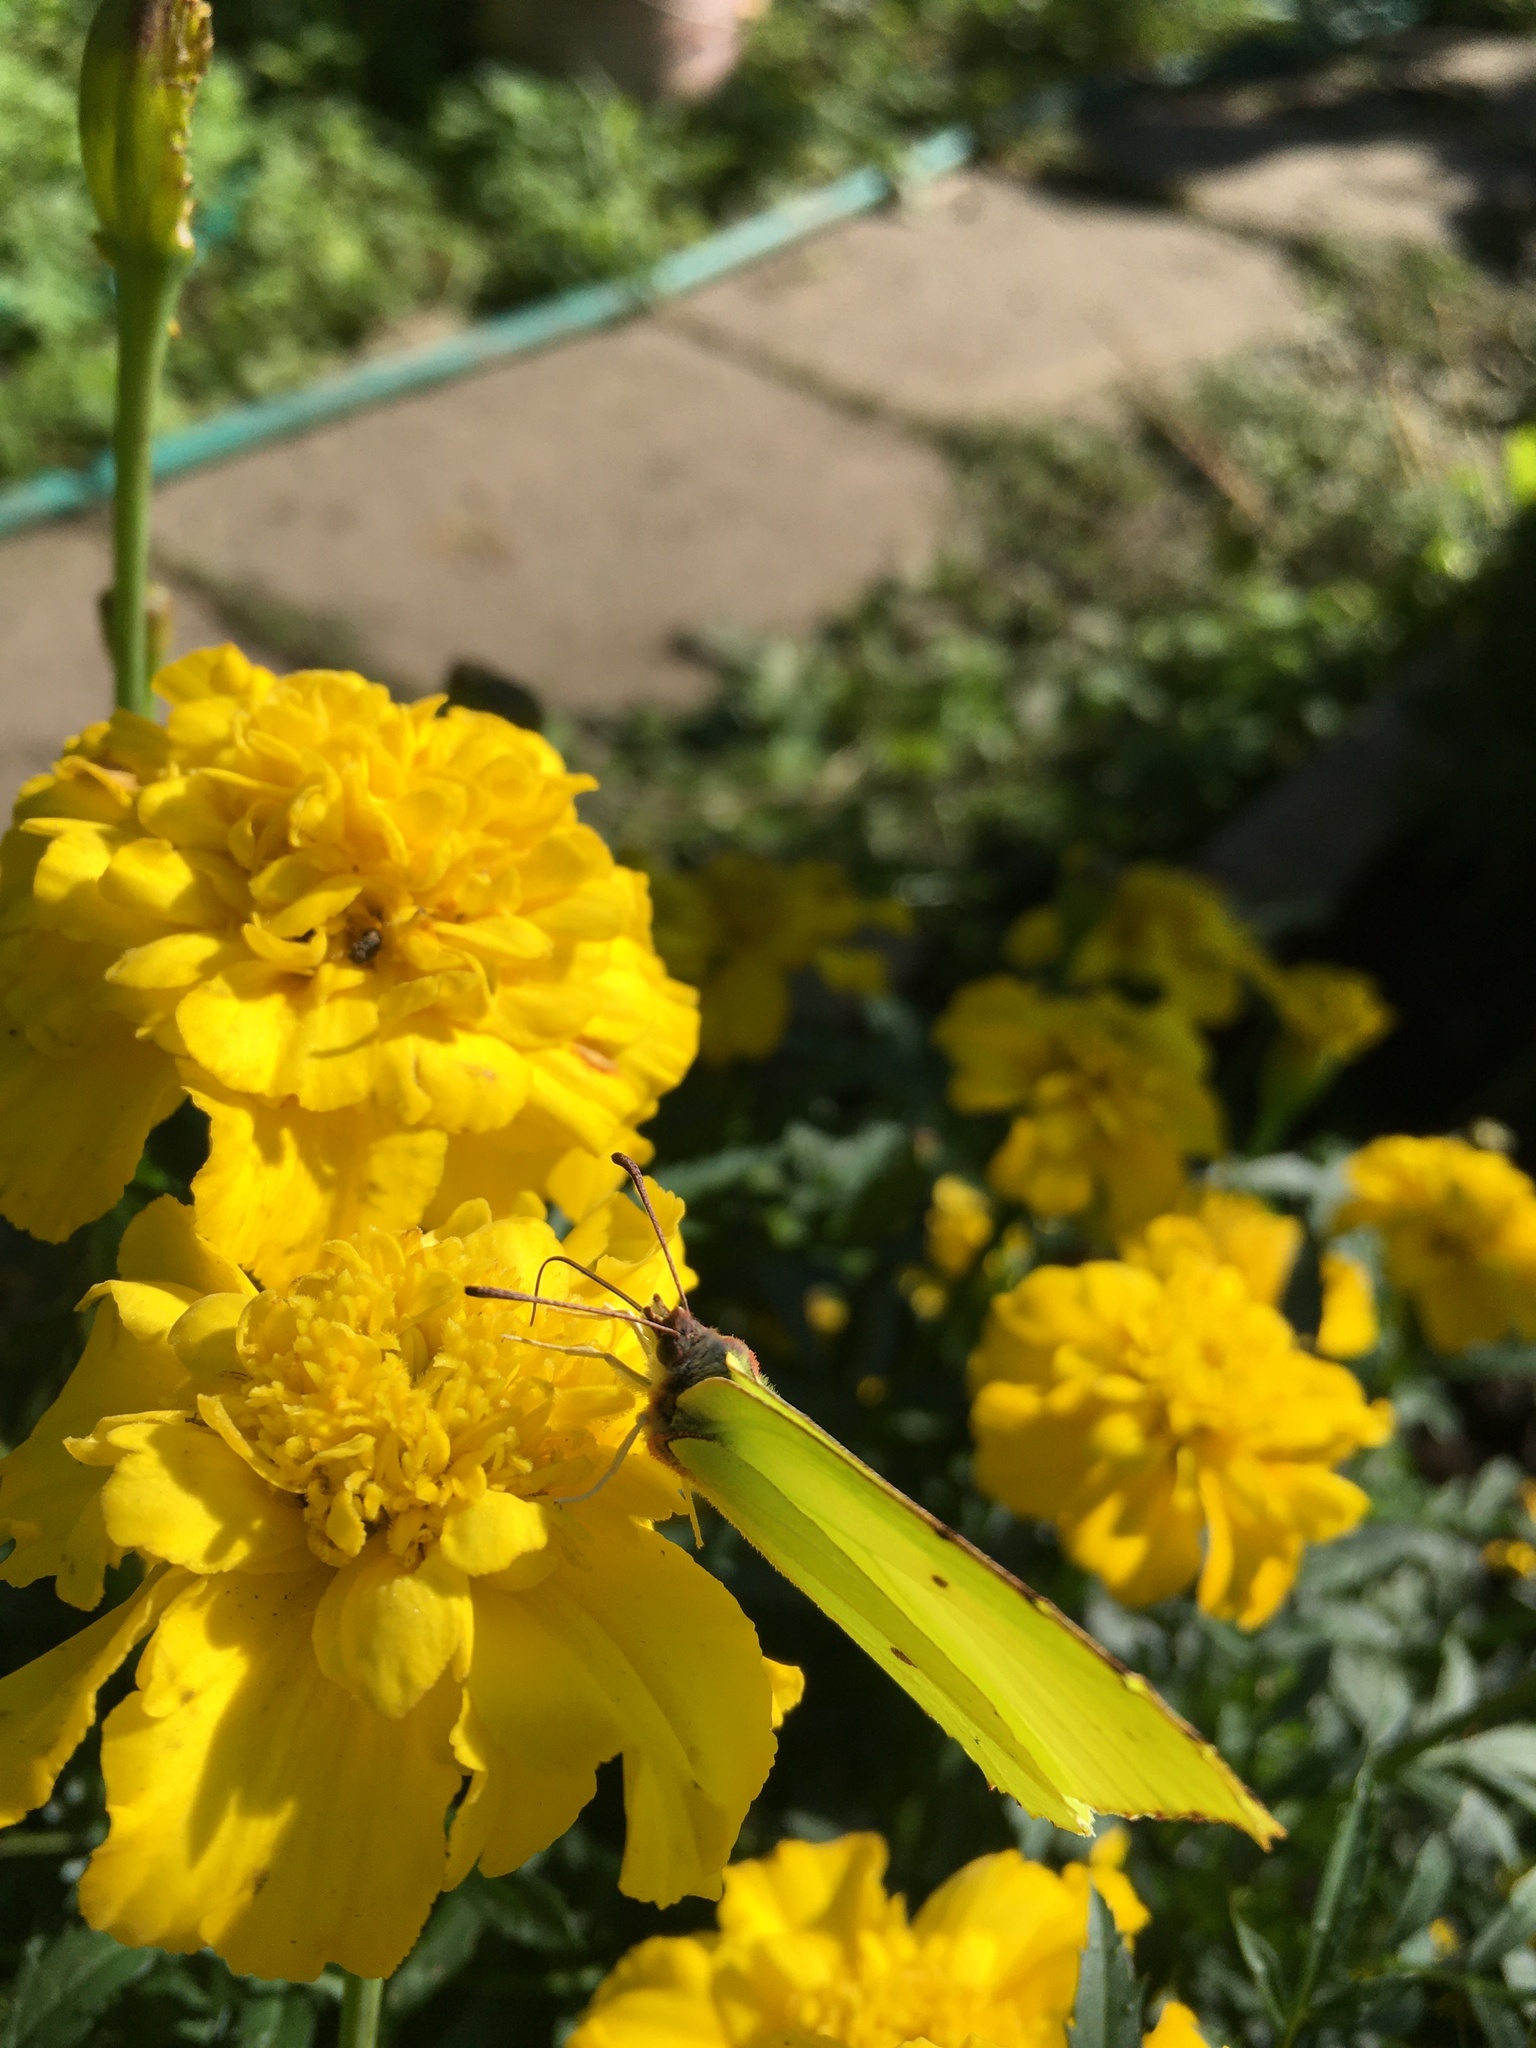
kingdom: Animalia
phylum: Arthropoda
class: Insecta
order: Lepidoptera
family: Pieridae
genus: Gonepteryx
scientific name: Gonepteryx rhamni
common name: Brimstone
